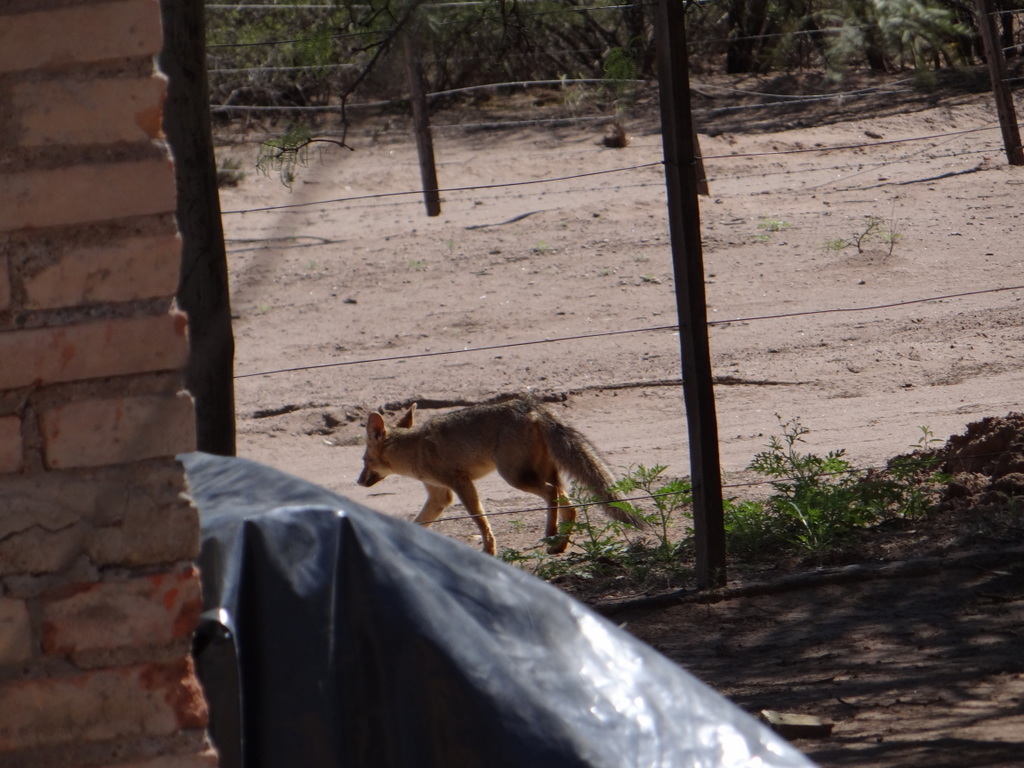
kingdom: Animalia
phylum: Chordata
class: Mammalia
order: Carnivora
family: Canidae
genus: Lycalopex
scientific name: Lycalopex gymnocercus
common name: Pampas fox
